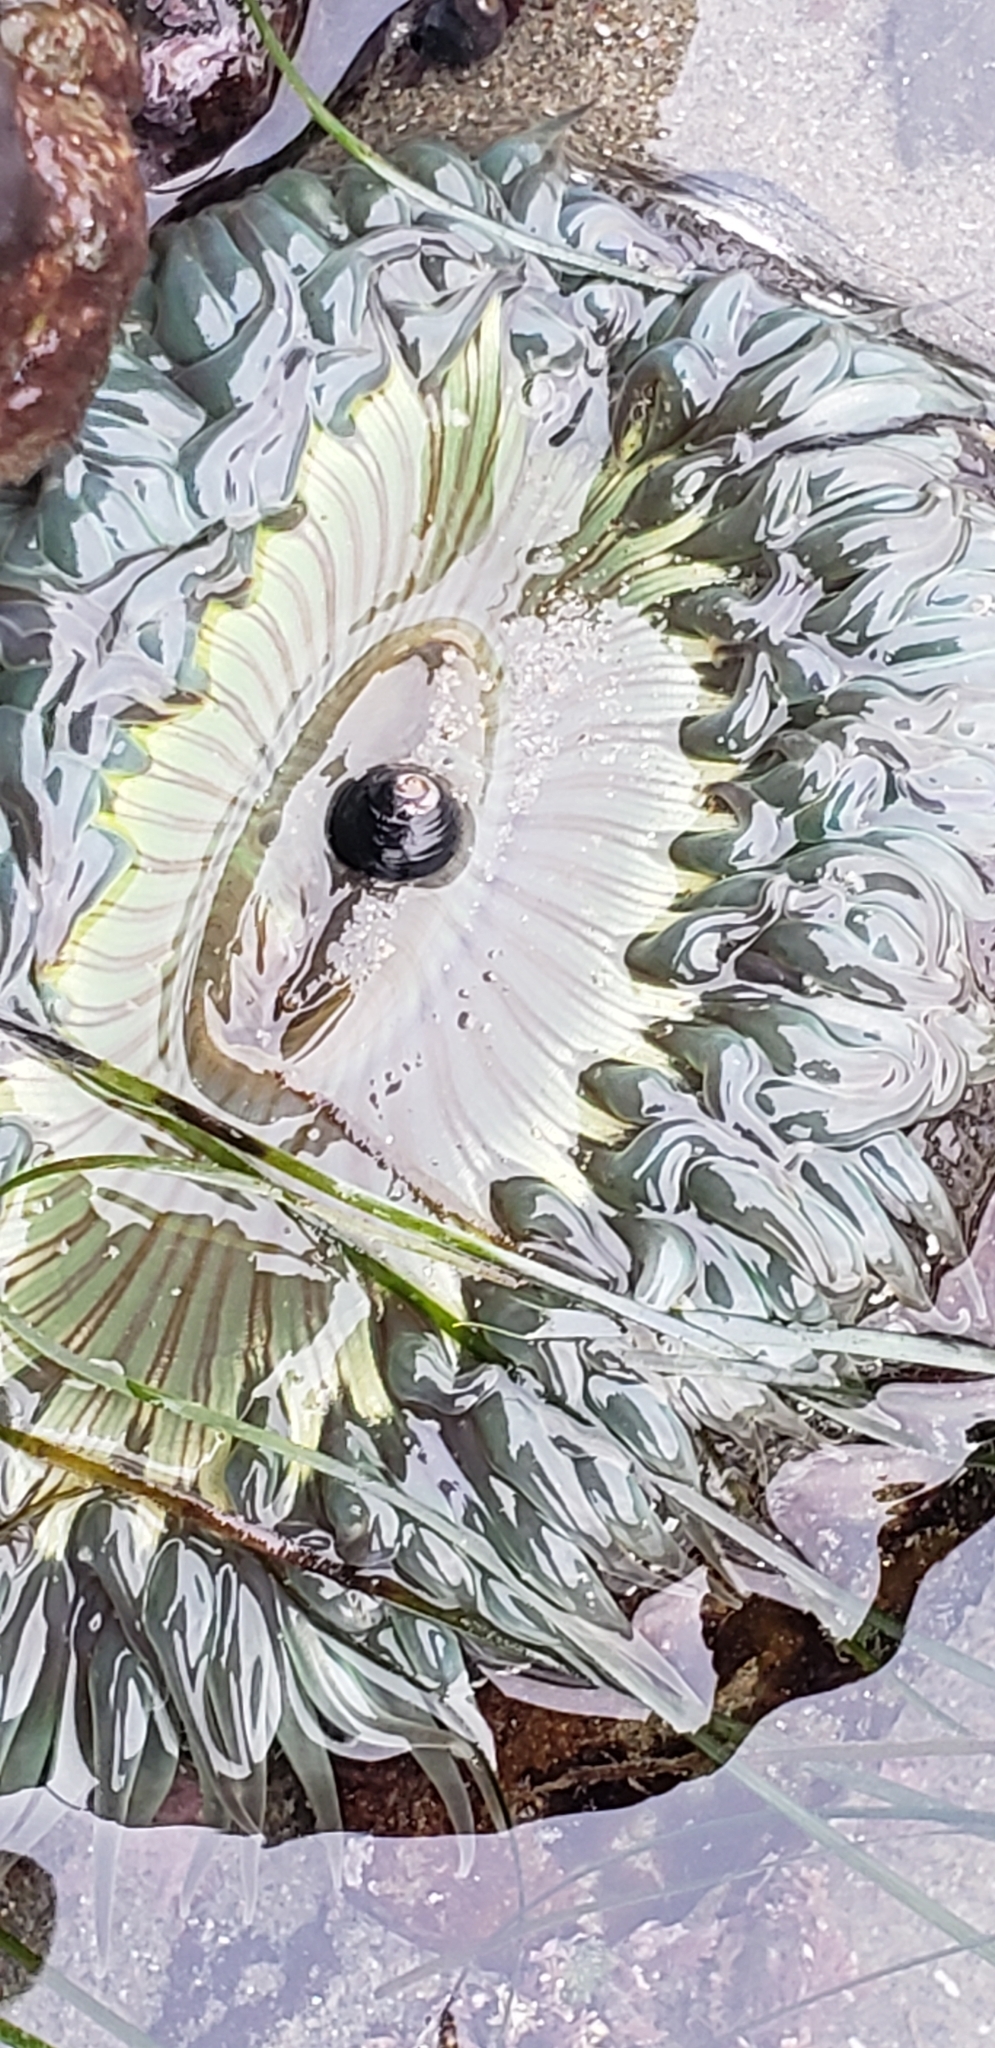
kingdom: Animalia
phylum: Cnidaria
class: Anthozoa
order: Actiniaria
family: Actiniidae
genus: Anthopleura
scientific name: Anthopleura sola
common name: Sun anemone
